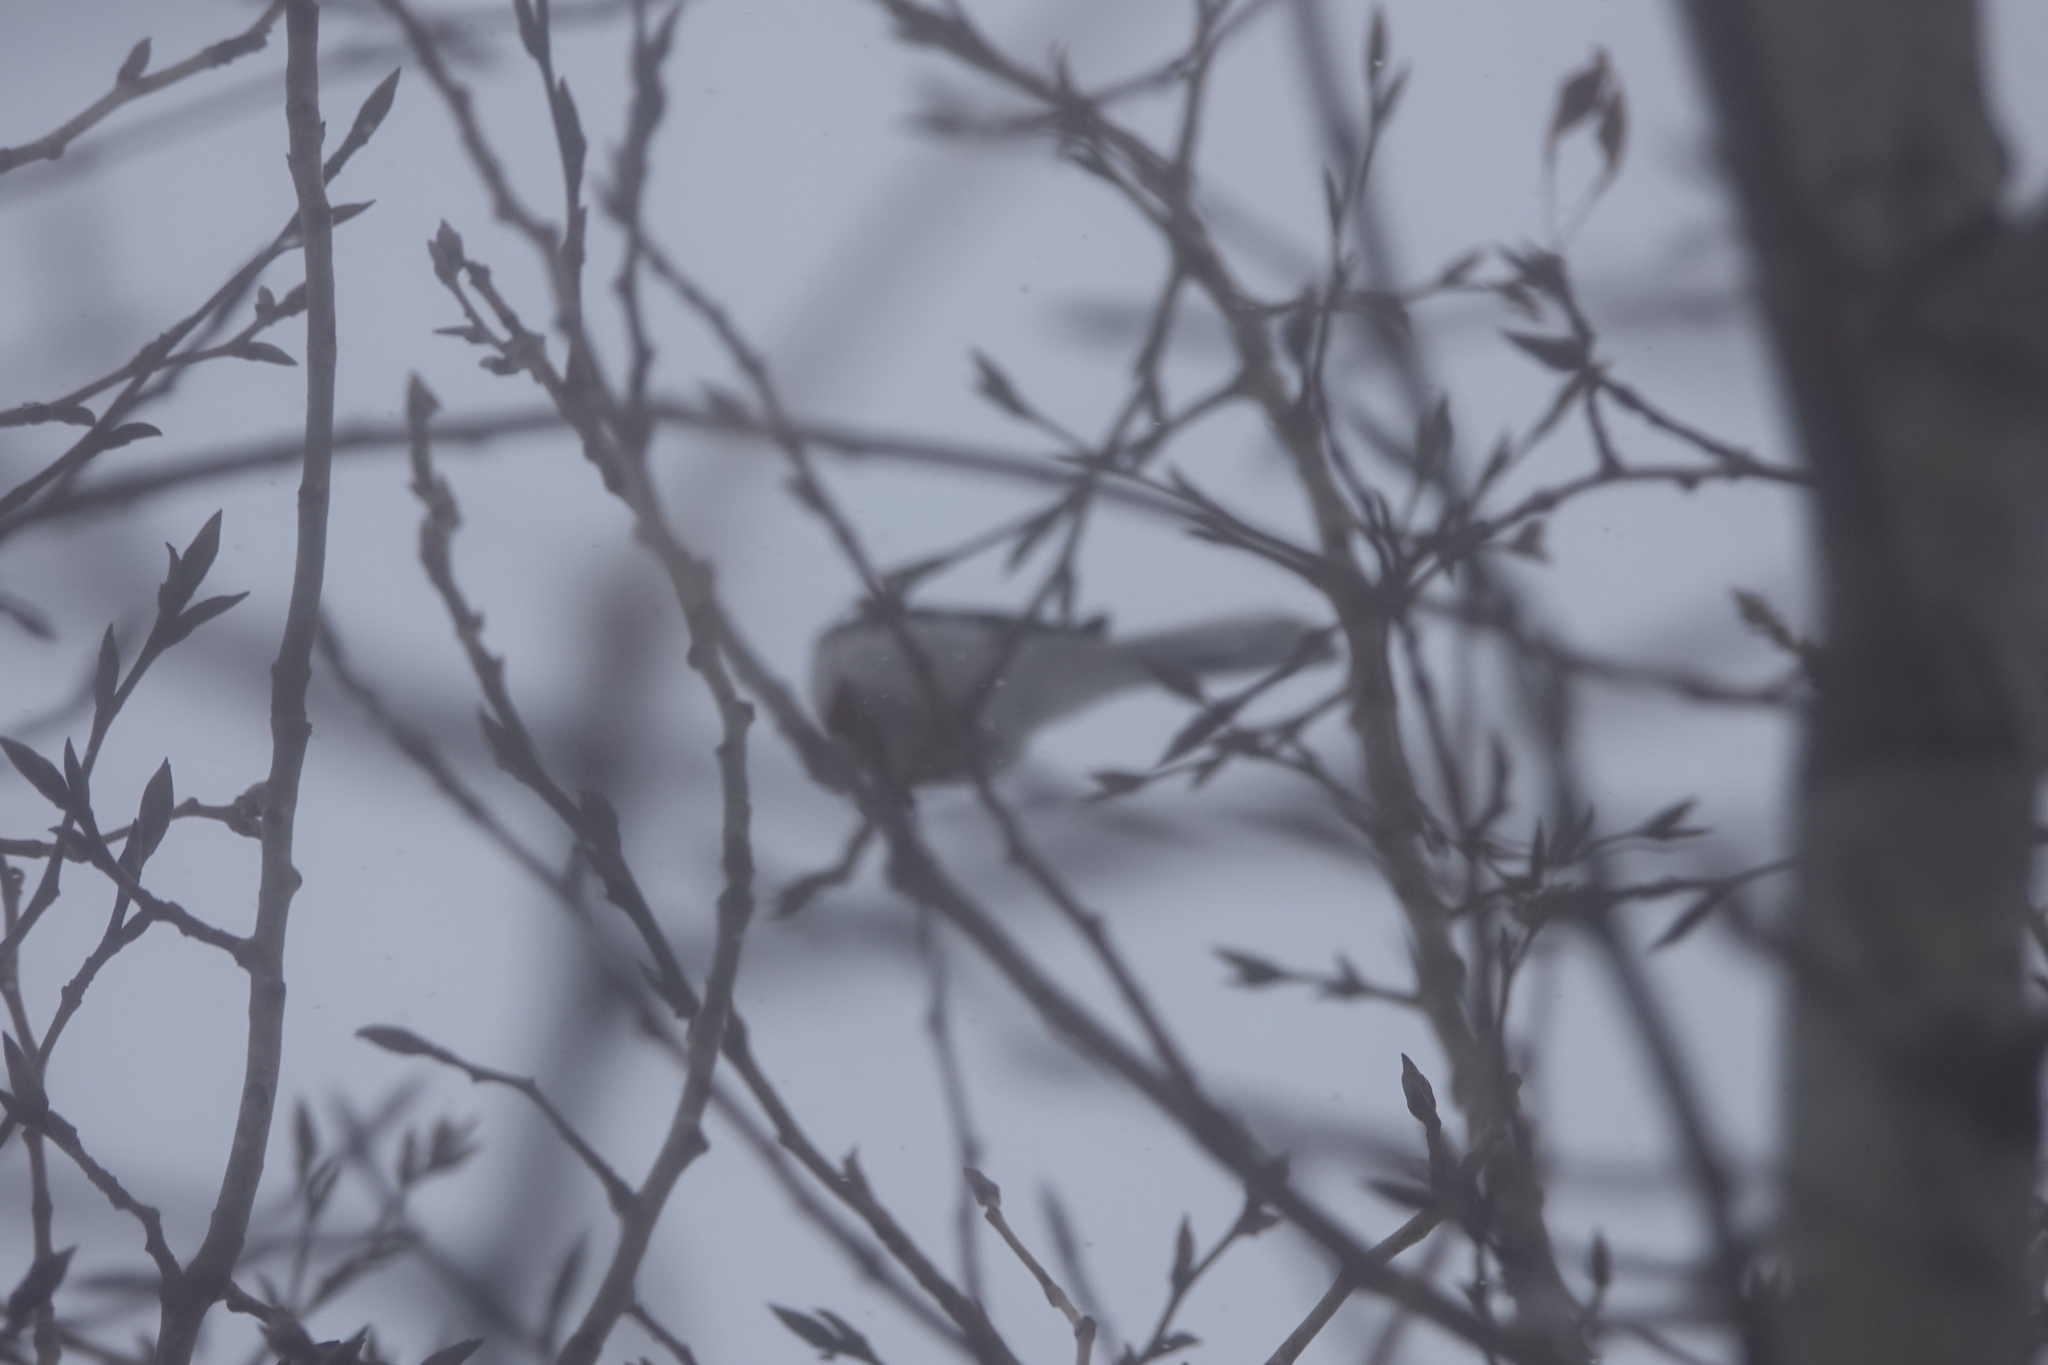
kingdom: Animalia
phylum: Chordata
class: Aves
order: Passeriformes
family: Laniidae
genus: Lanius
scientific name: Lanius excubitor
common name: Great grey shrike
